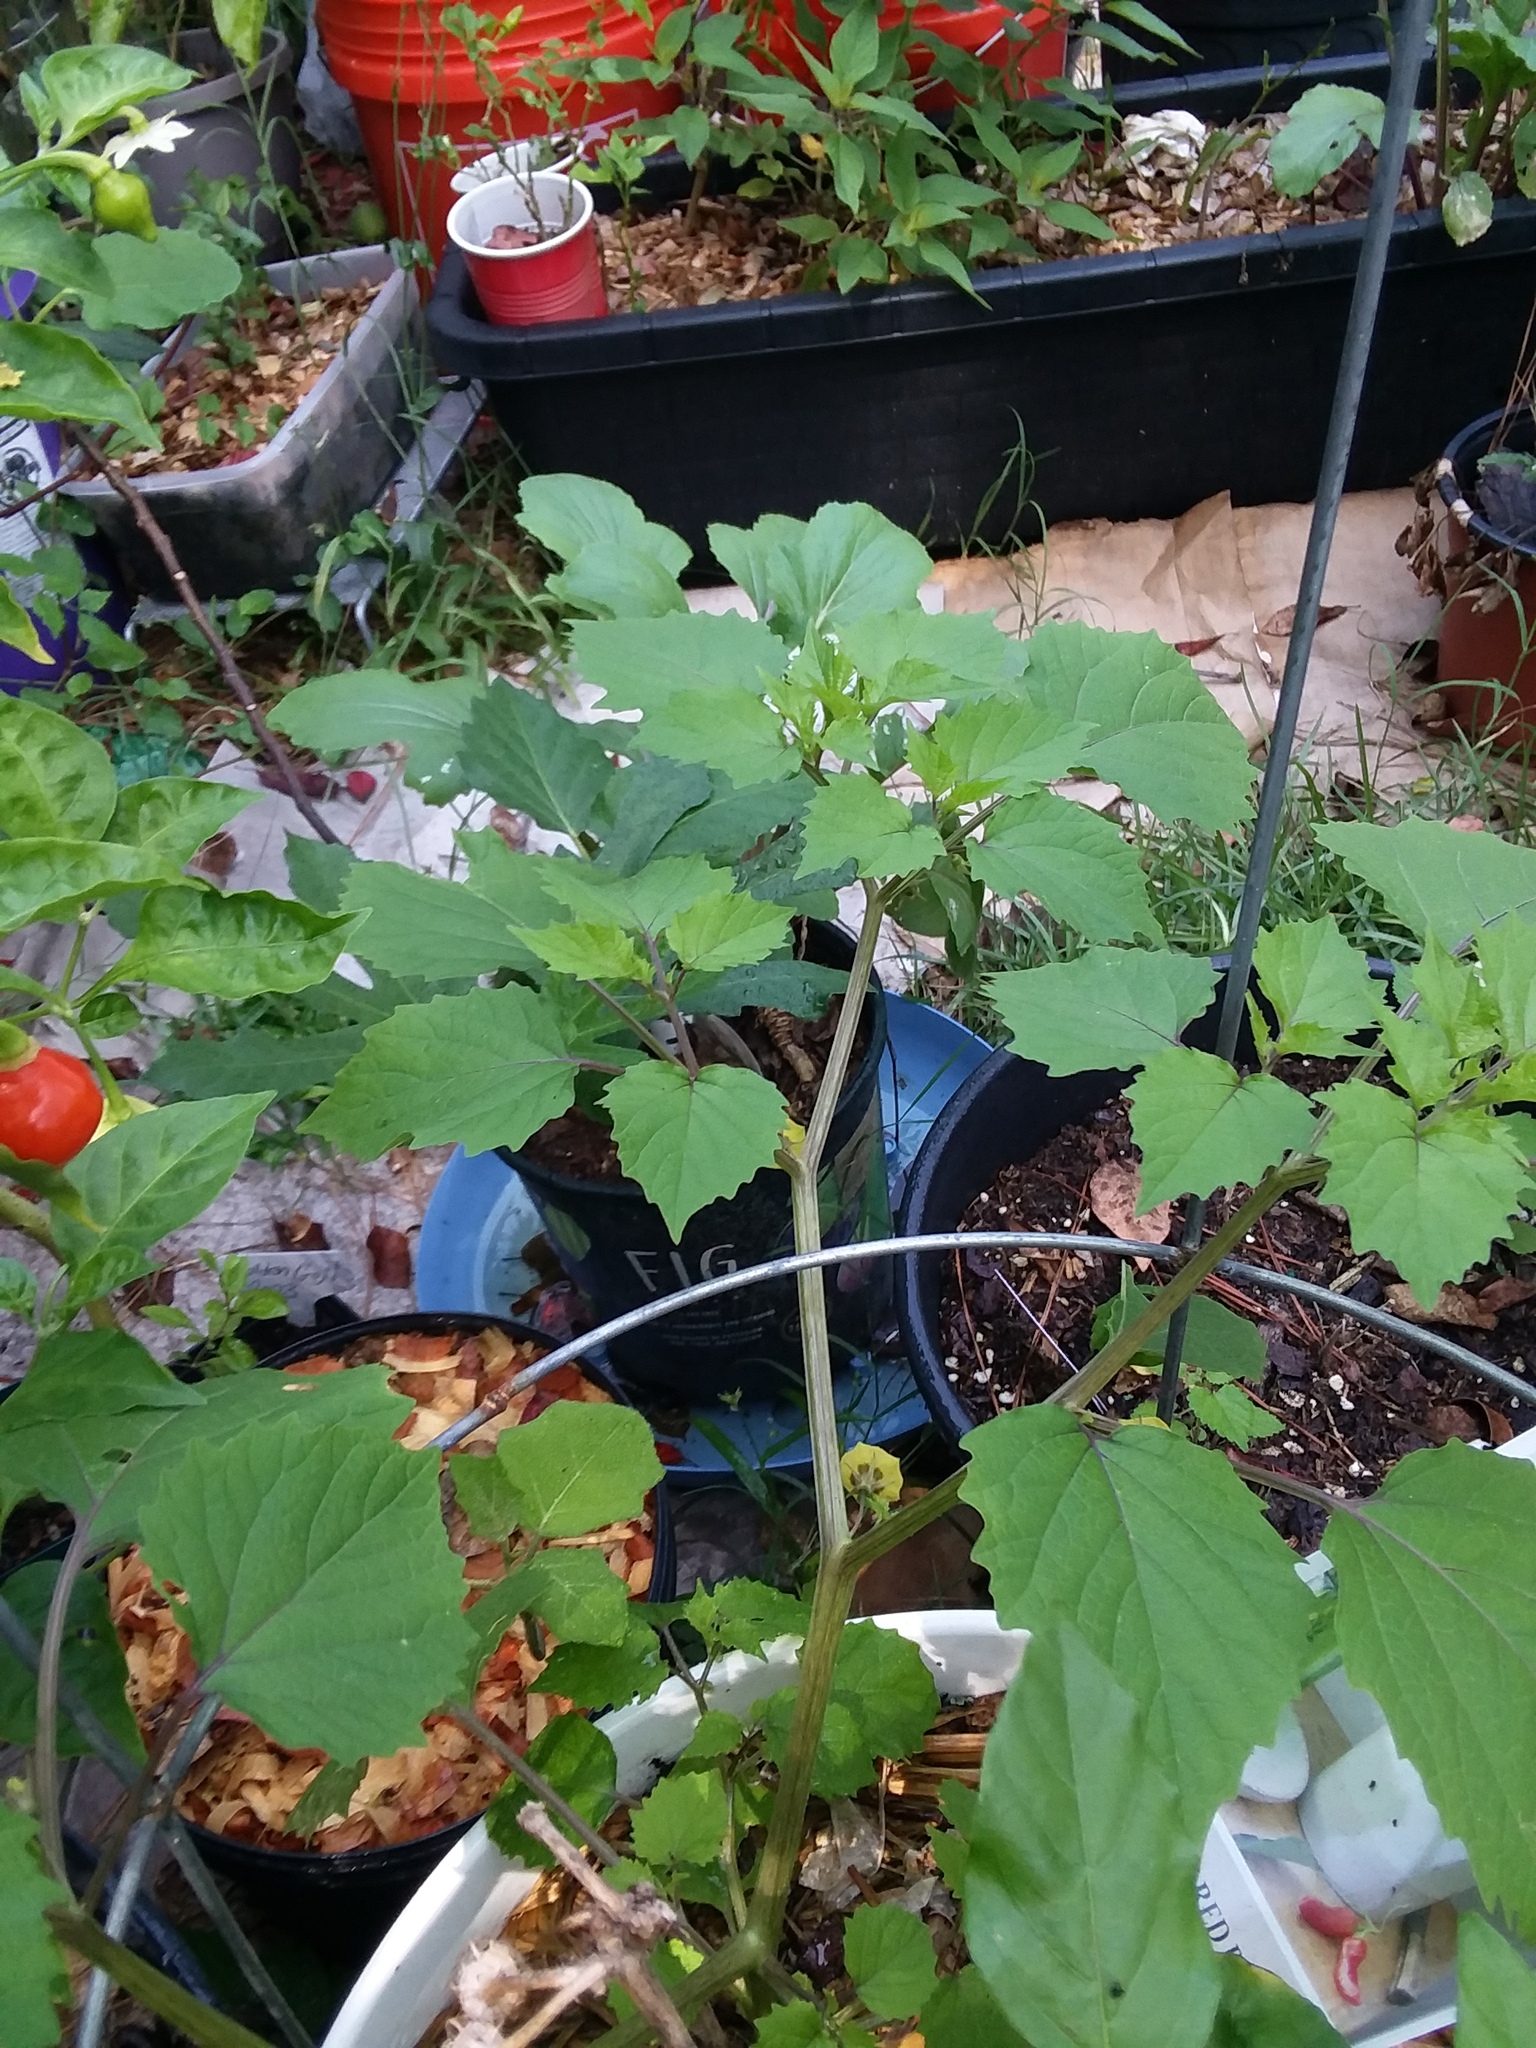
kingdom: Plantae
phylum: Tracheophyta
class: Magnoliopsida
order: Solanales
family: Solanaceae
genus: Physalis
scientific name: Physalis cordata
